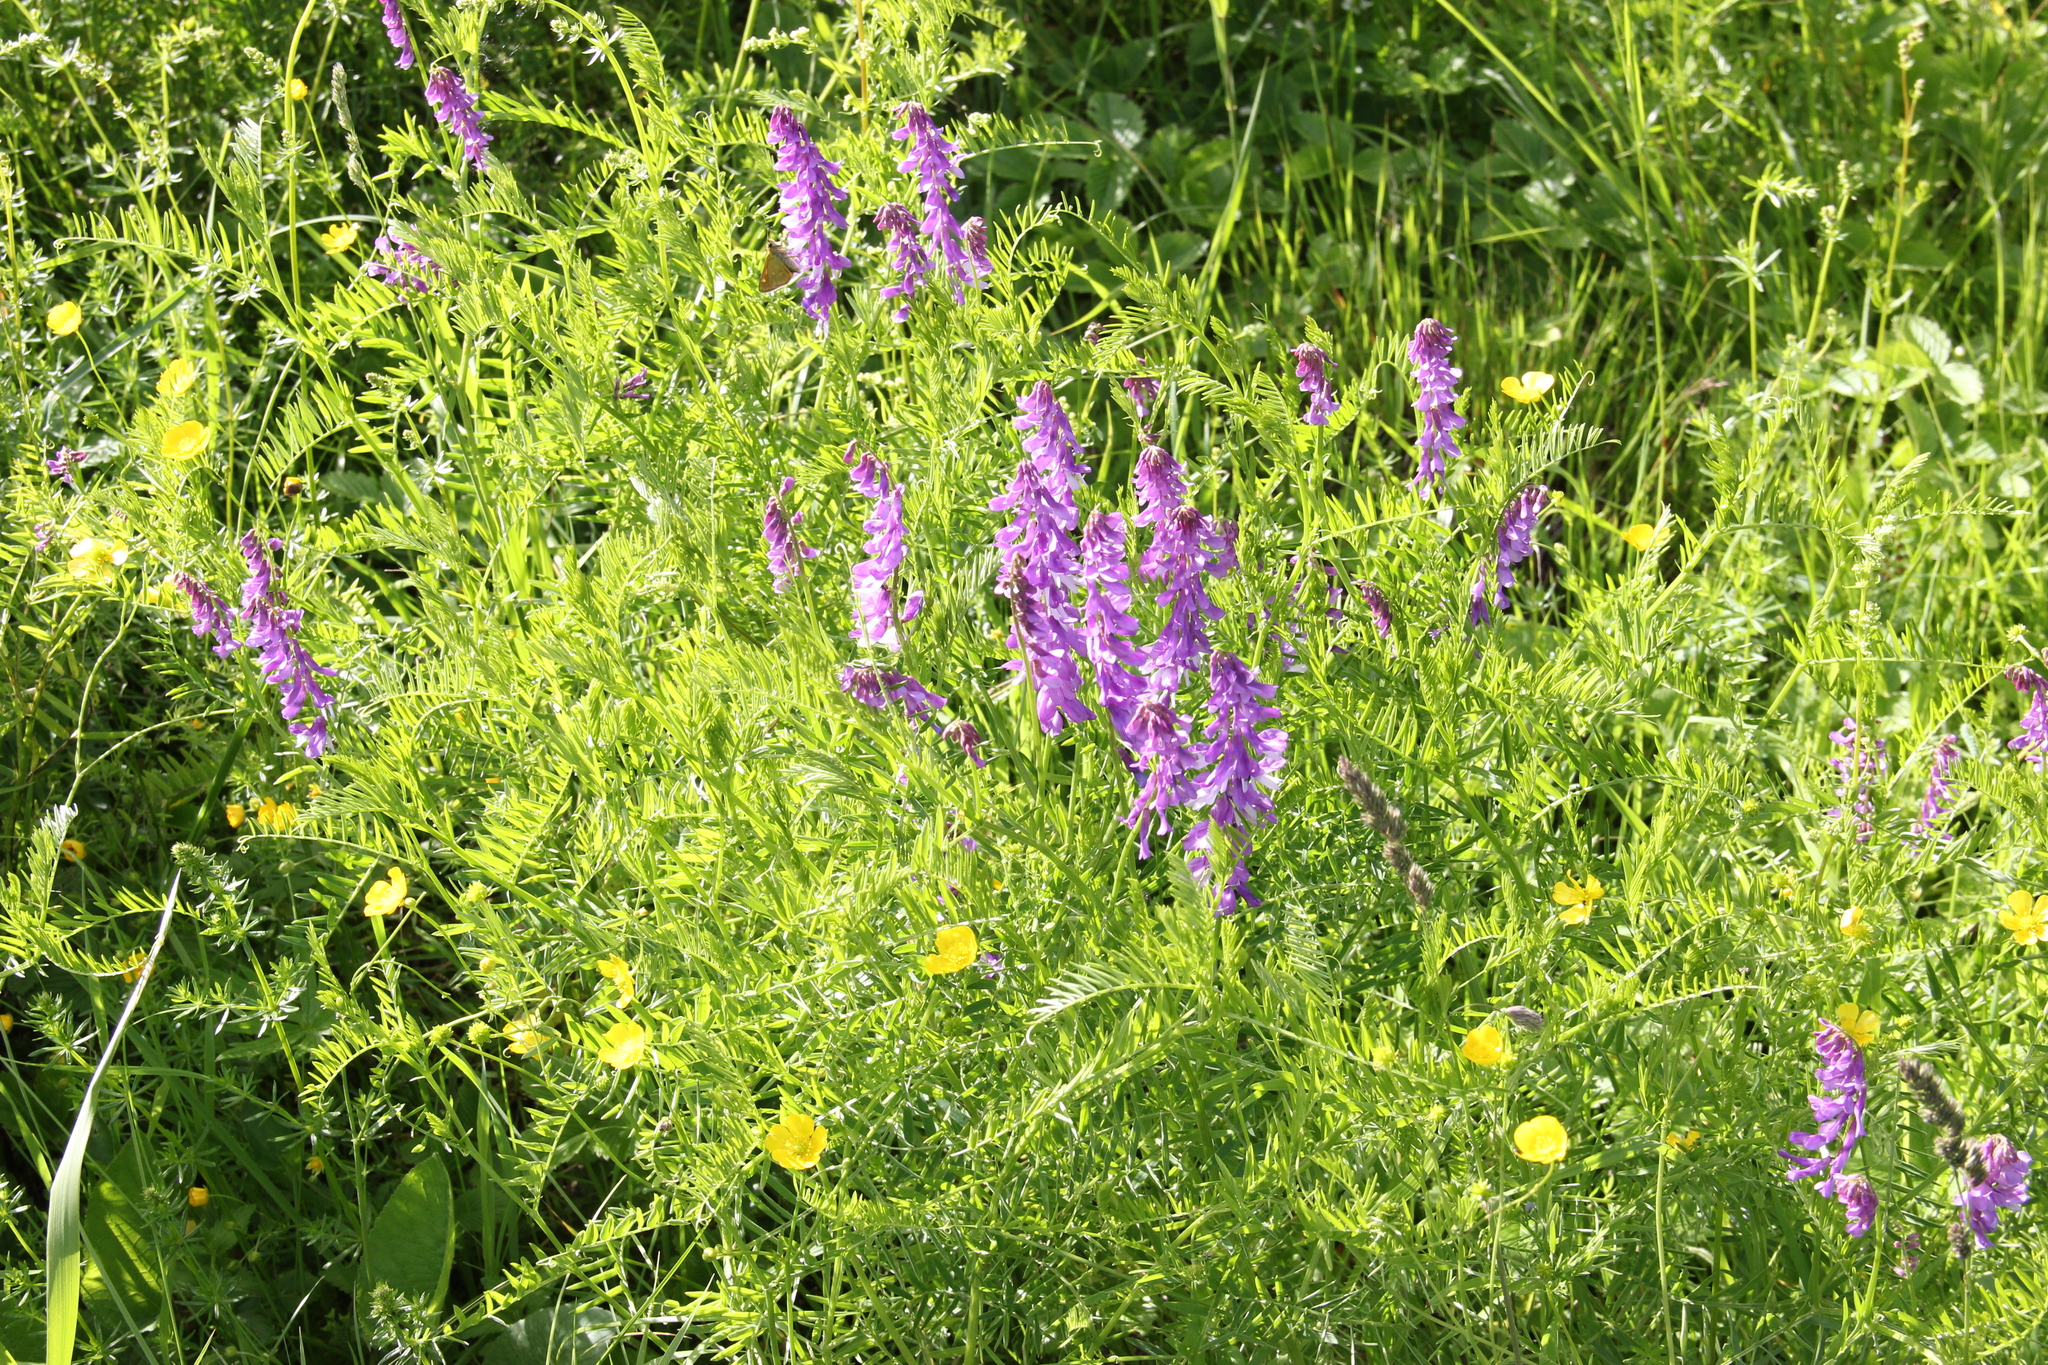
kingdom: Plantae
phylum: Tracheophyta
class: Magnoliopsida
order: Fabales
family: Fabaceae
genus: Vicia
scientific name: Vicia tenuifolia
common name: Fine-leaved vetch
